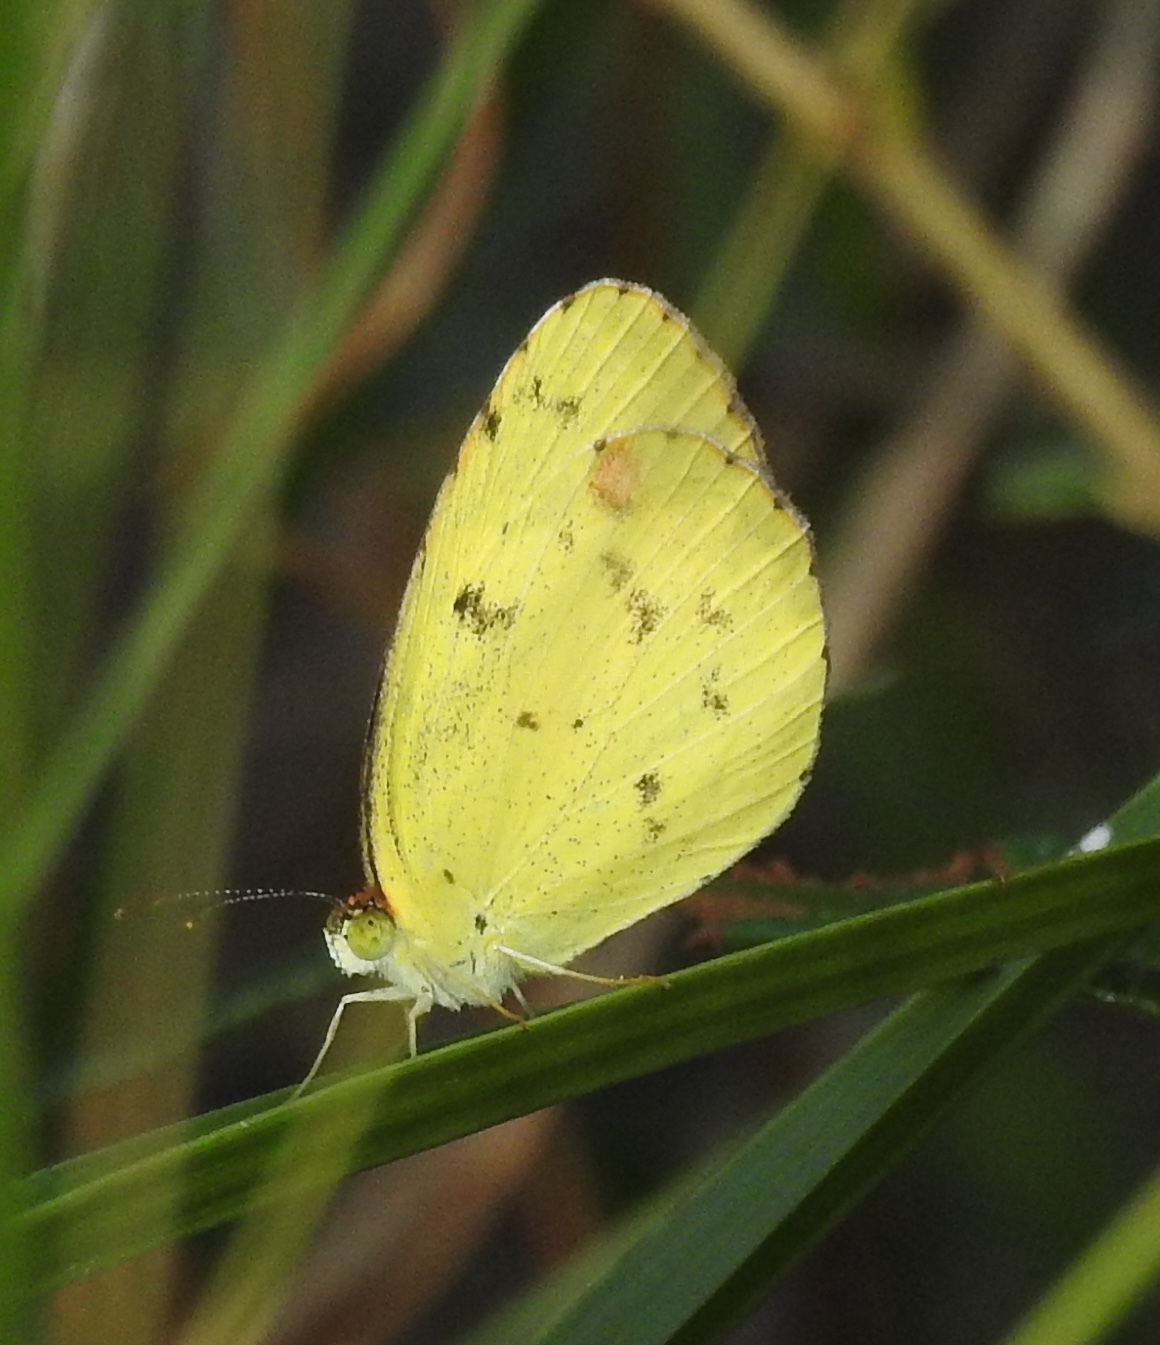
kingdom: Animalia
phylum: Arthropoda
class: Insecta
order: Lepidoptera
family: Pieridae
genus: Pyrisitia
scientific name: Pyrisitia lisa
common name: Little yellow
